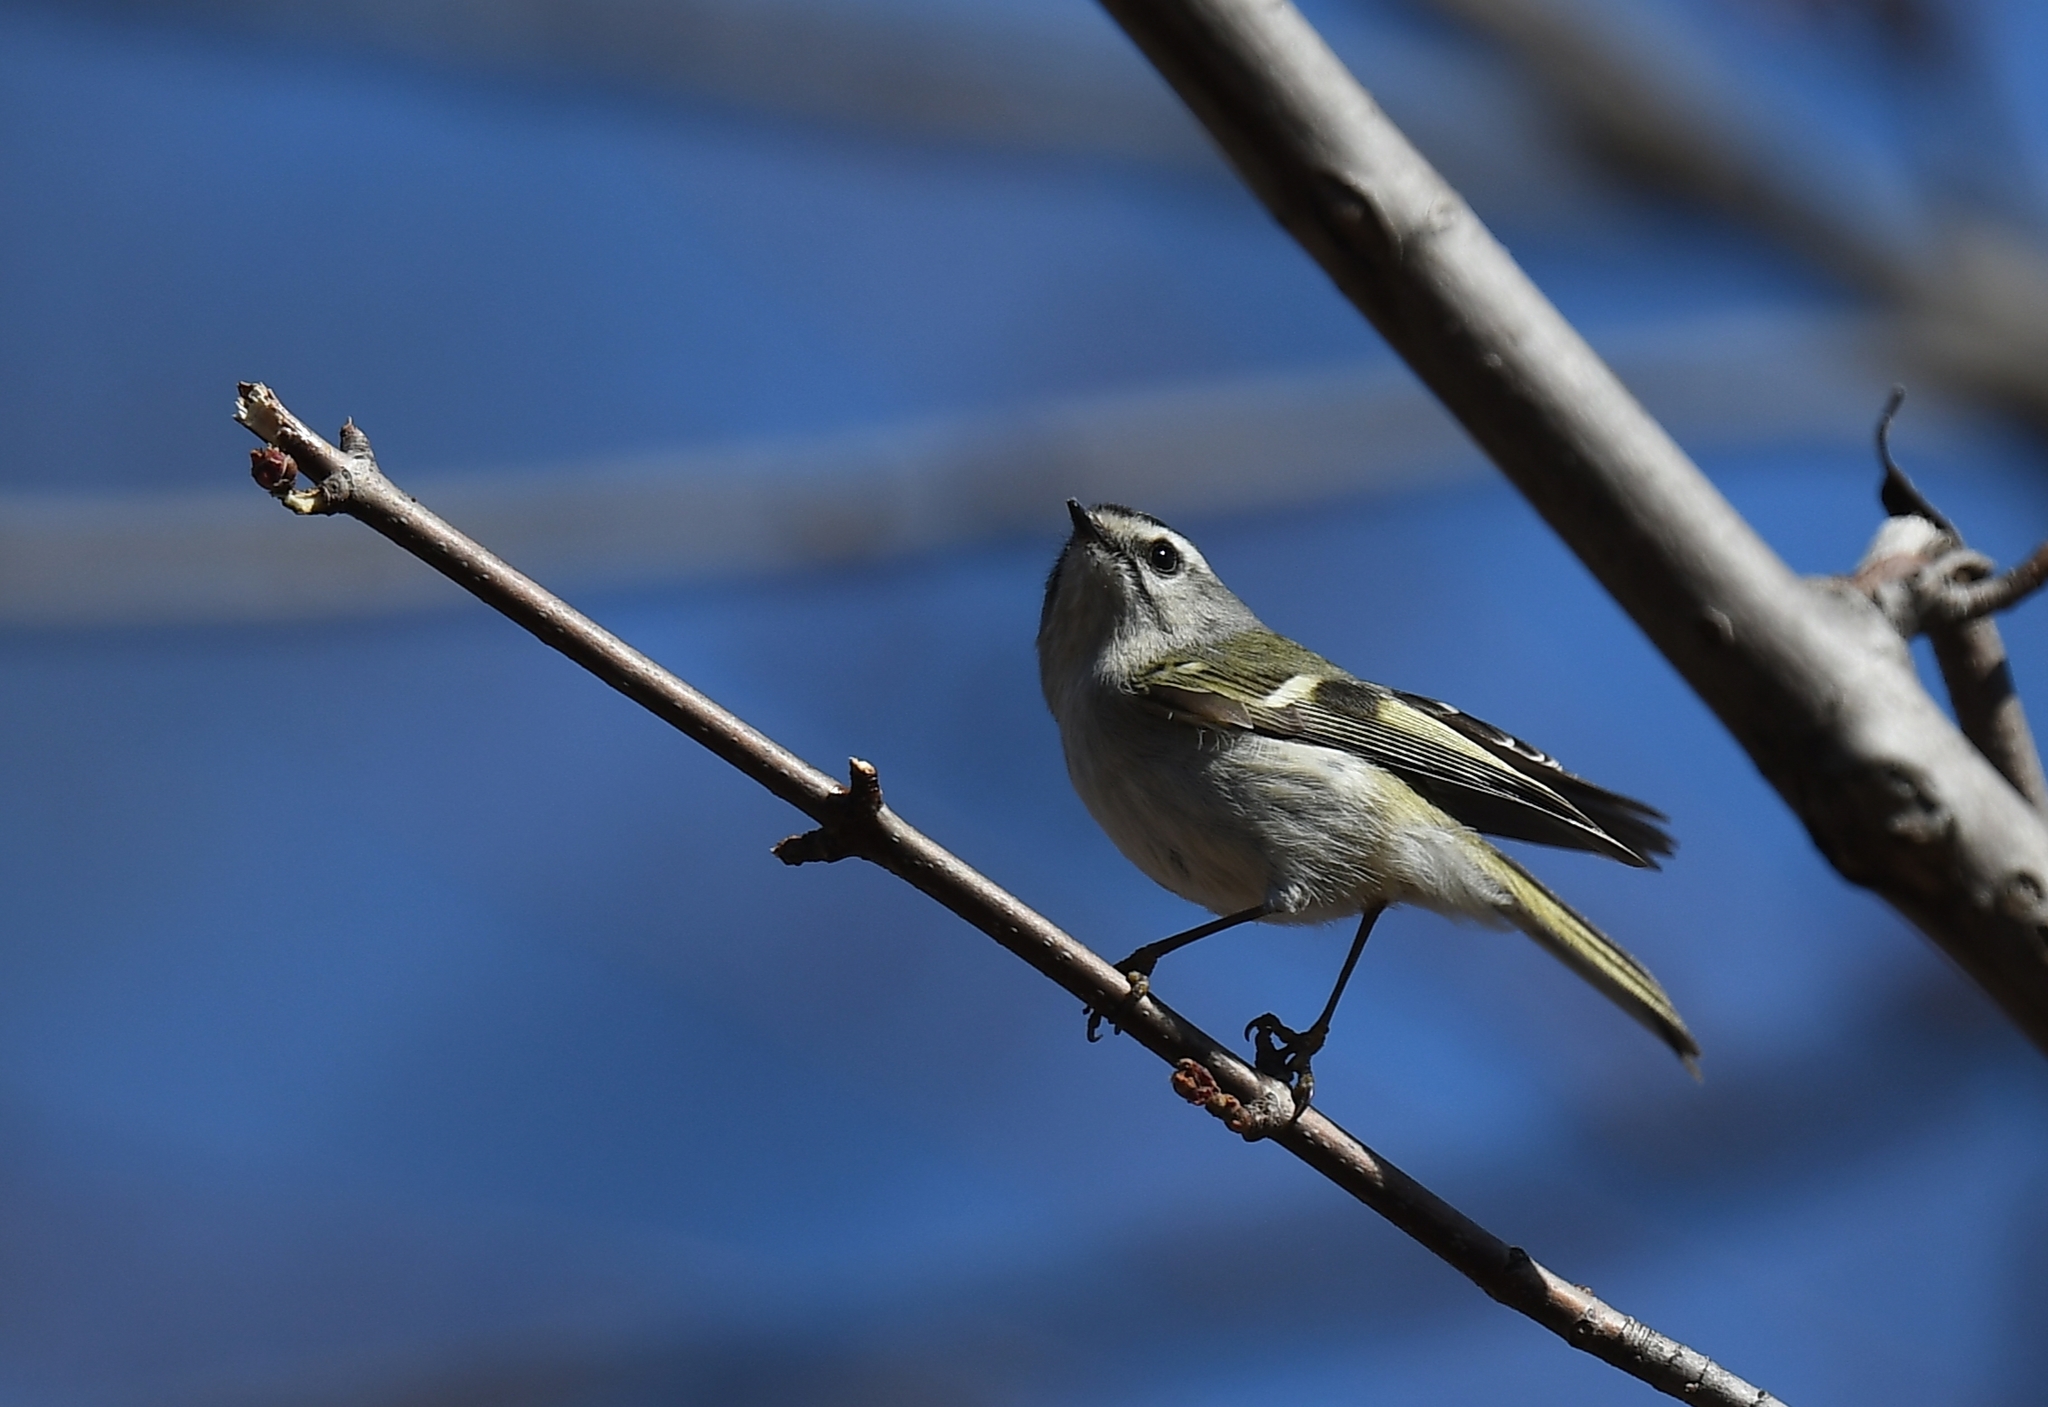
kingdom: Animalia
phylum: Chordata
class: Aves
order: Passeriformes
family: Regulidae
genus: Regulus
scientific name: Regulus satrapa
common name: Golden-crowned kinglet
